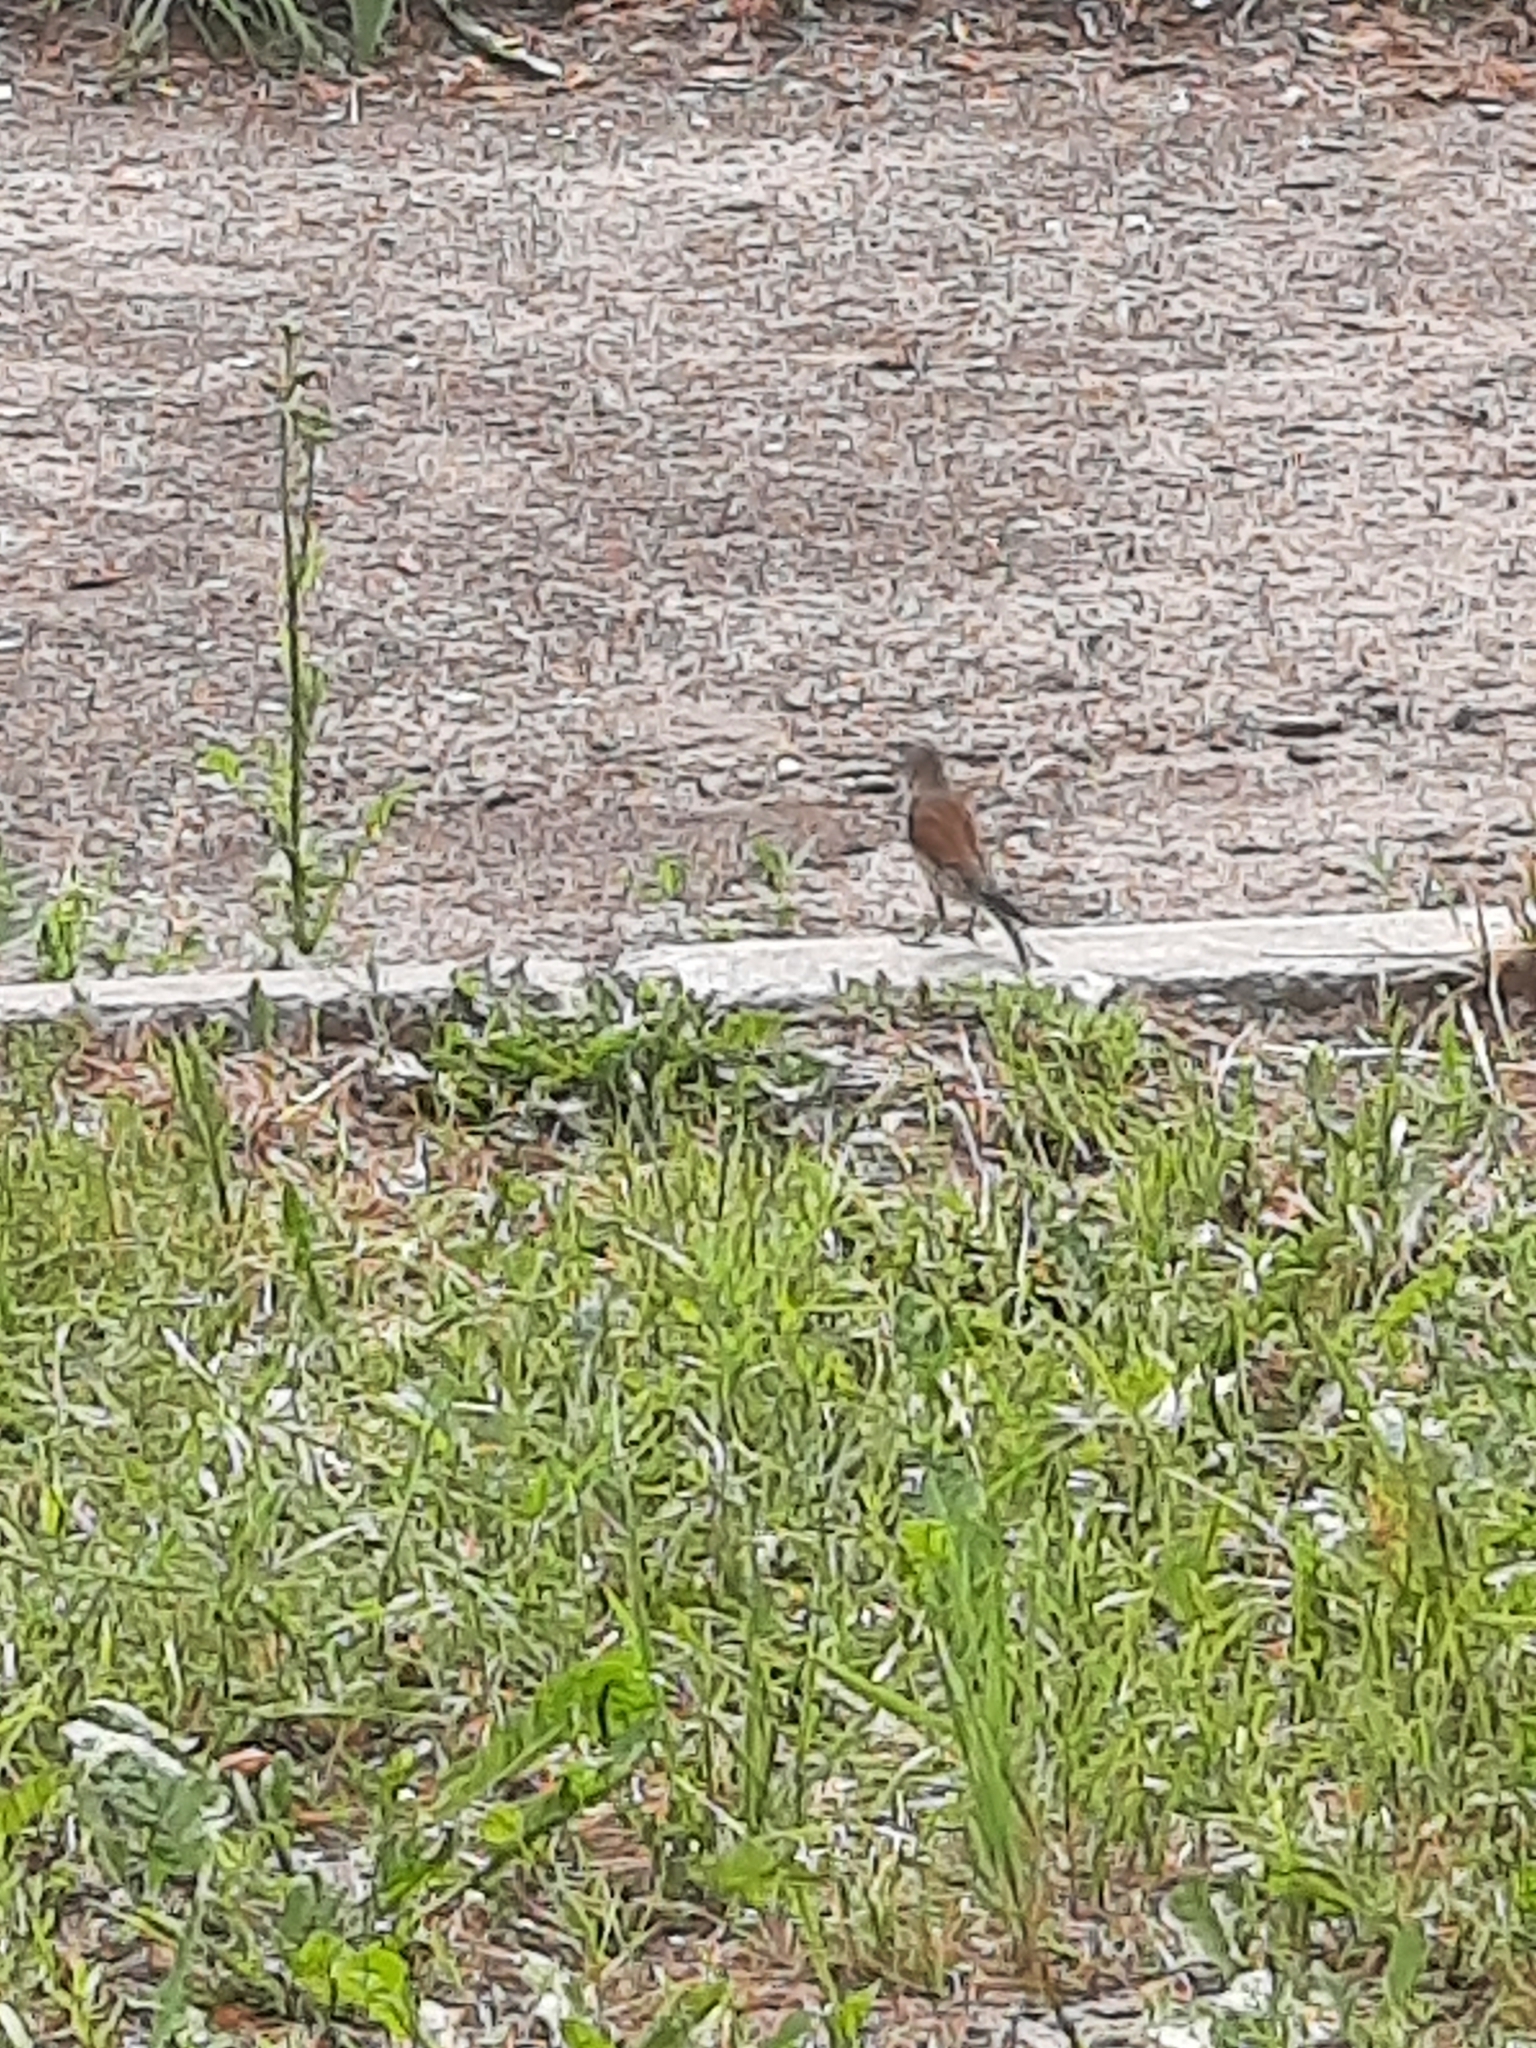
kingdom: Animalia
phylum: Chordata
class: Aves
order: Passeriformes
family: Fringillidae
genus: Linaria
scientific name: Linaria cannabina
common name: Common linnet
